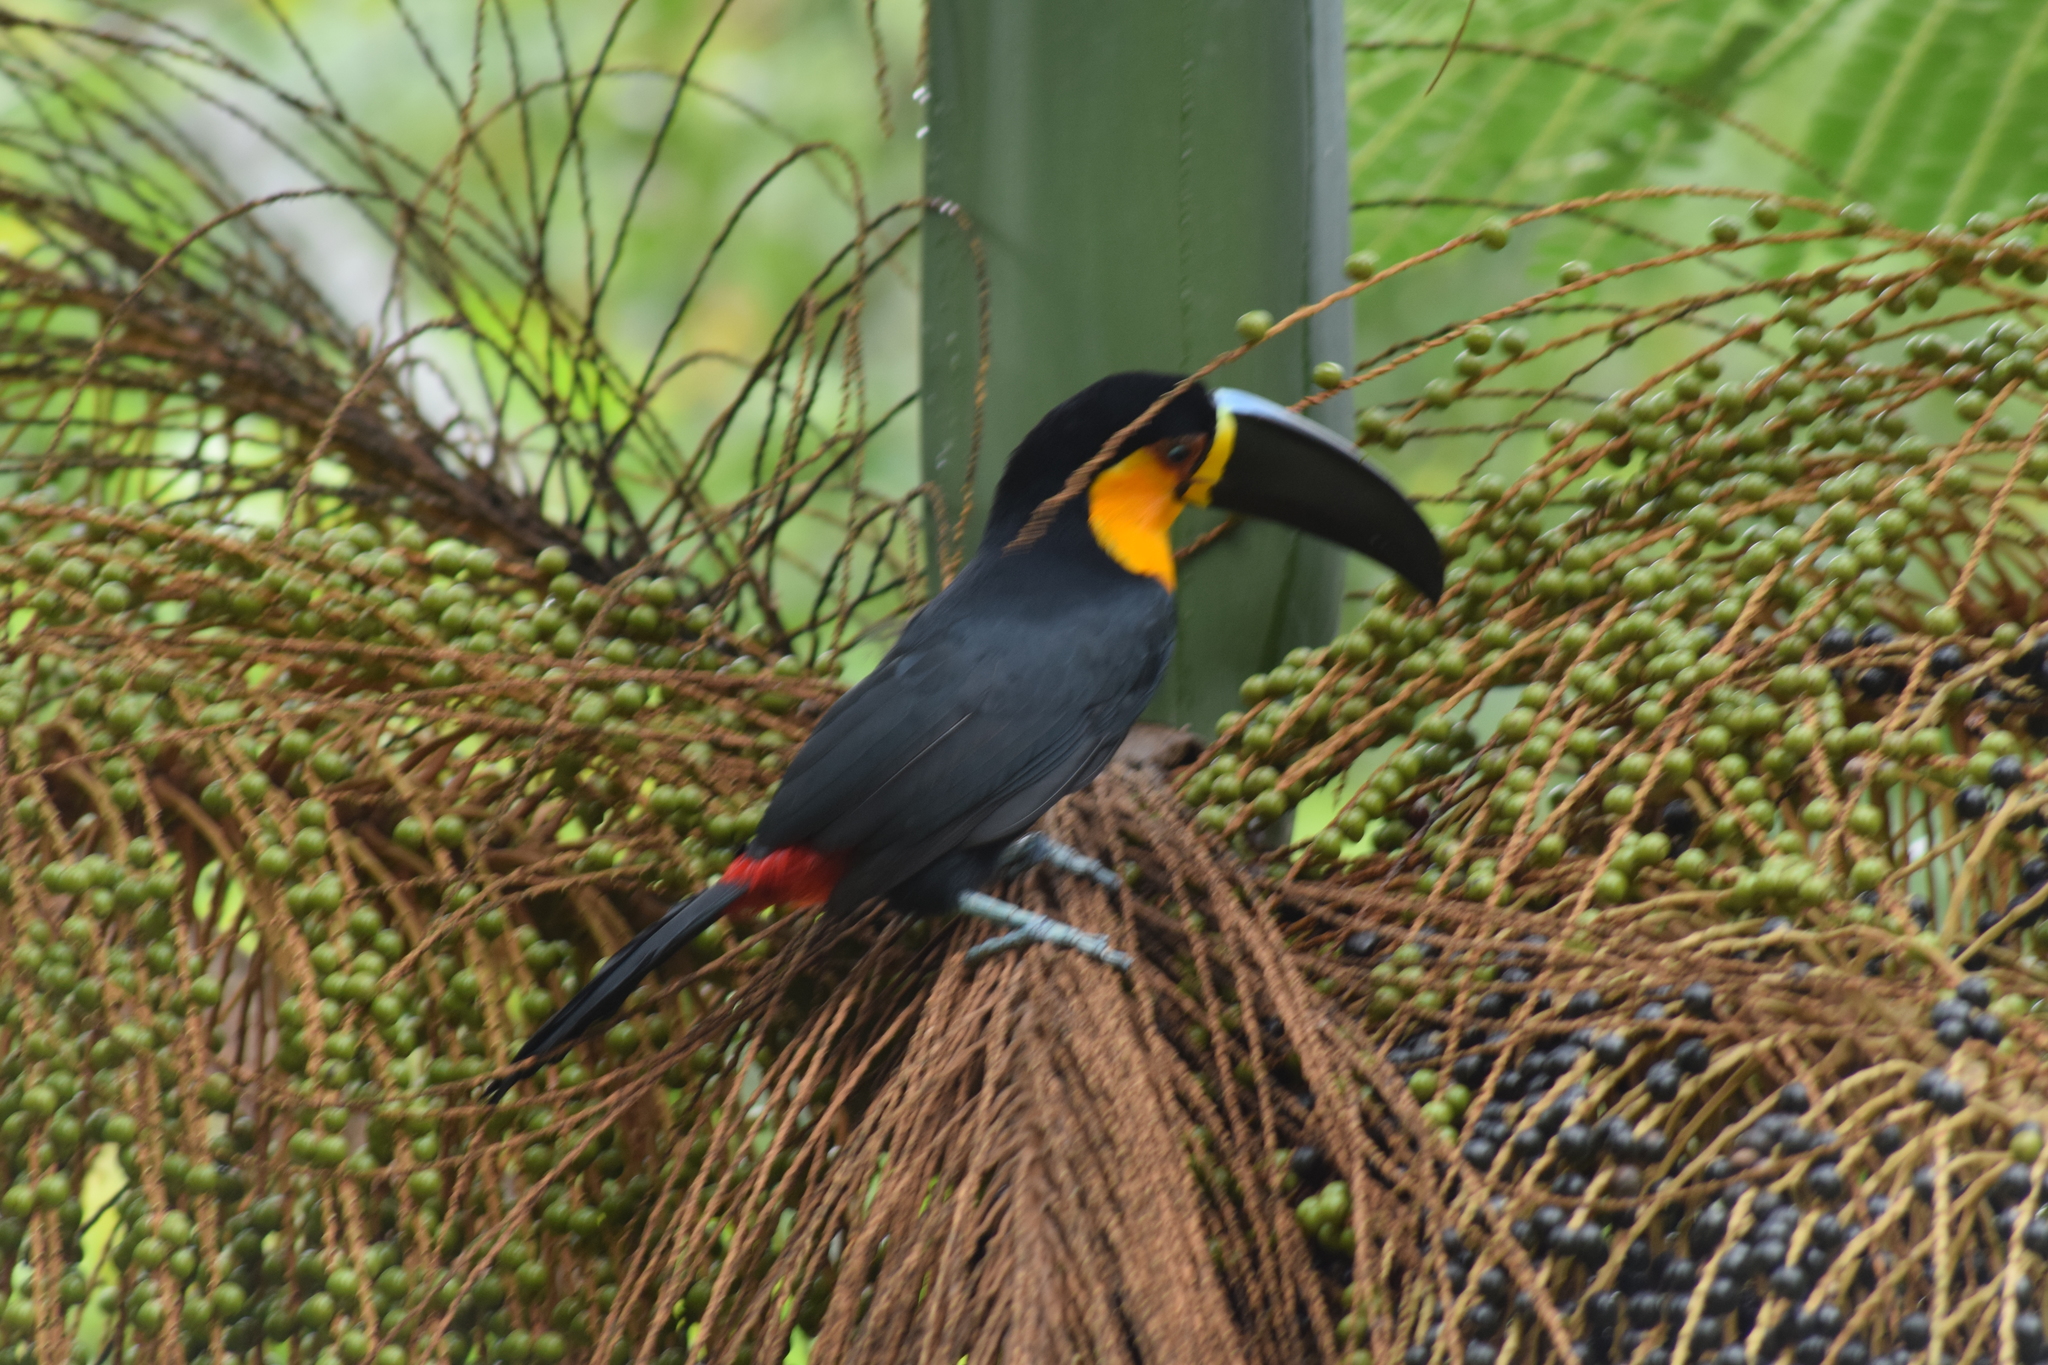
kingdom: Animalia
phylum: Chordata
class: Aves
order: Piciformes
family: Ramphastidae
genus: Ramphastos
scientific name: Ramphastos vitellinus
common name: Channel-billed toucan
